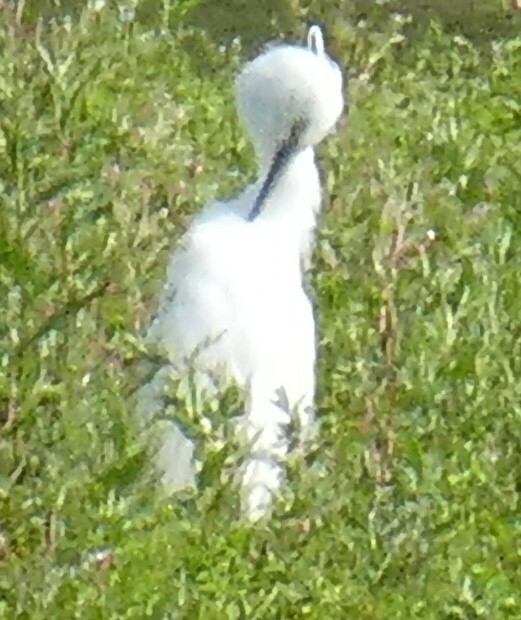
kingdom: Animalia
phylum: Chordata
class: Aves
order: Pelecaniformes
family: Ardeidae
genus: Egretta
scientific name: Egretta garzetta
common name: Little egret
